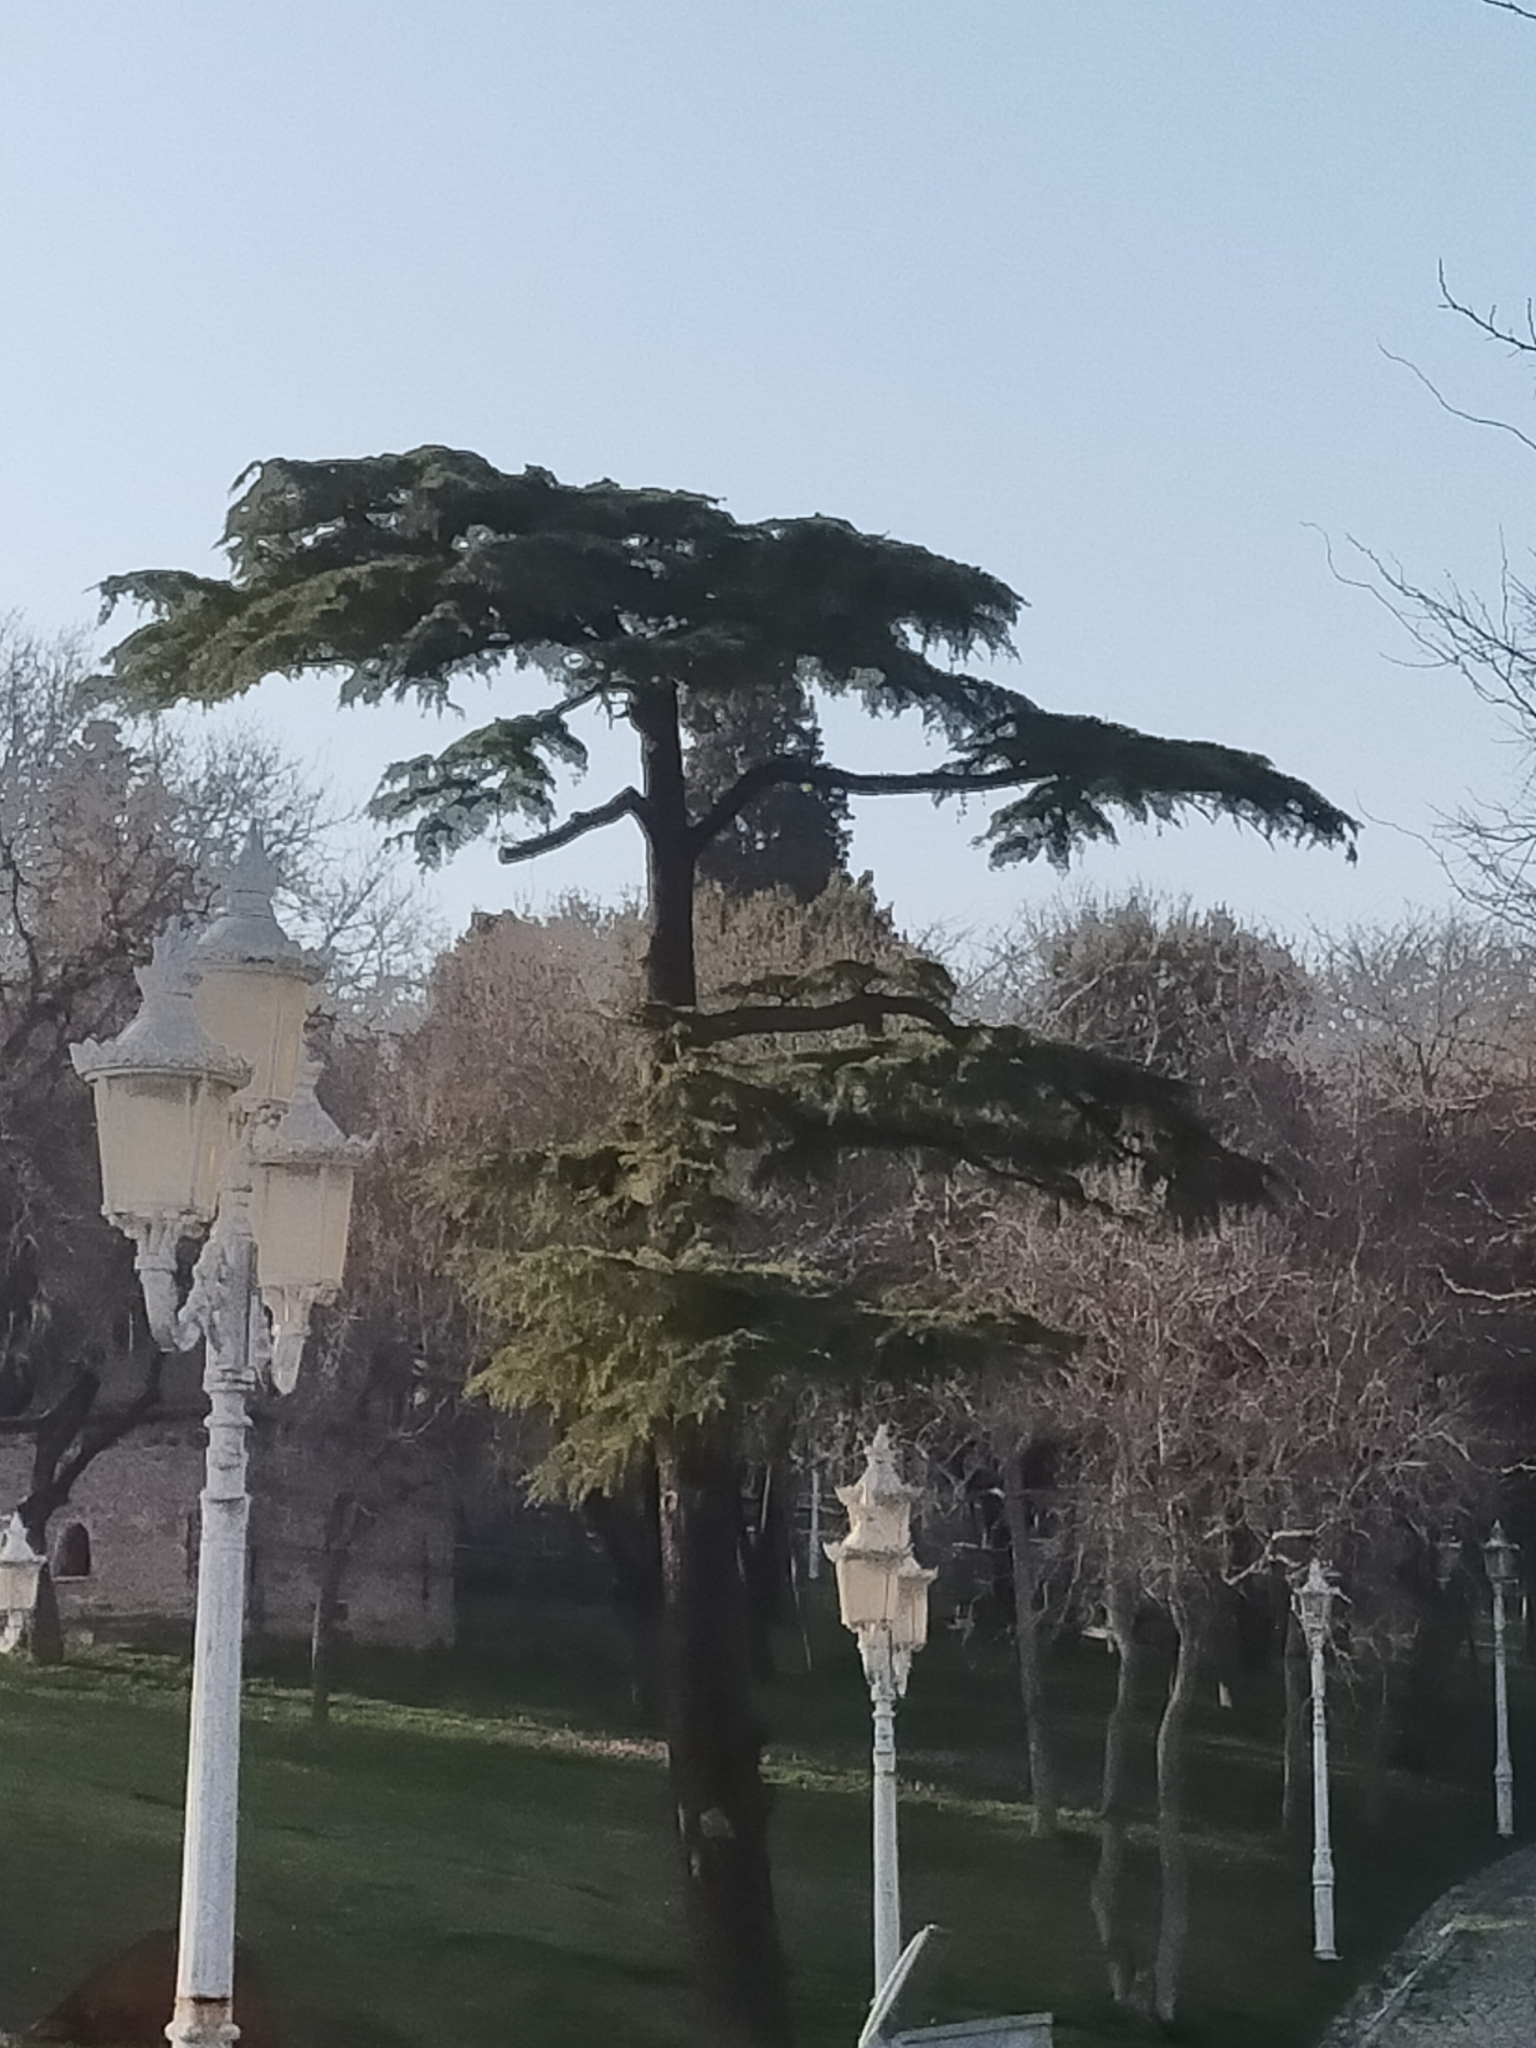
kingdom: Plantae
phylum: Tracheophyta
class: Pinopsida
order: Pinales
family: Pinaceae
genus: Cedrus
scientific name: Cedrus libani
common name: Cedar-of-lebanon
